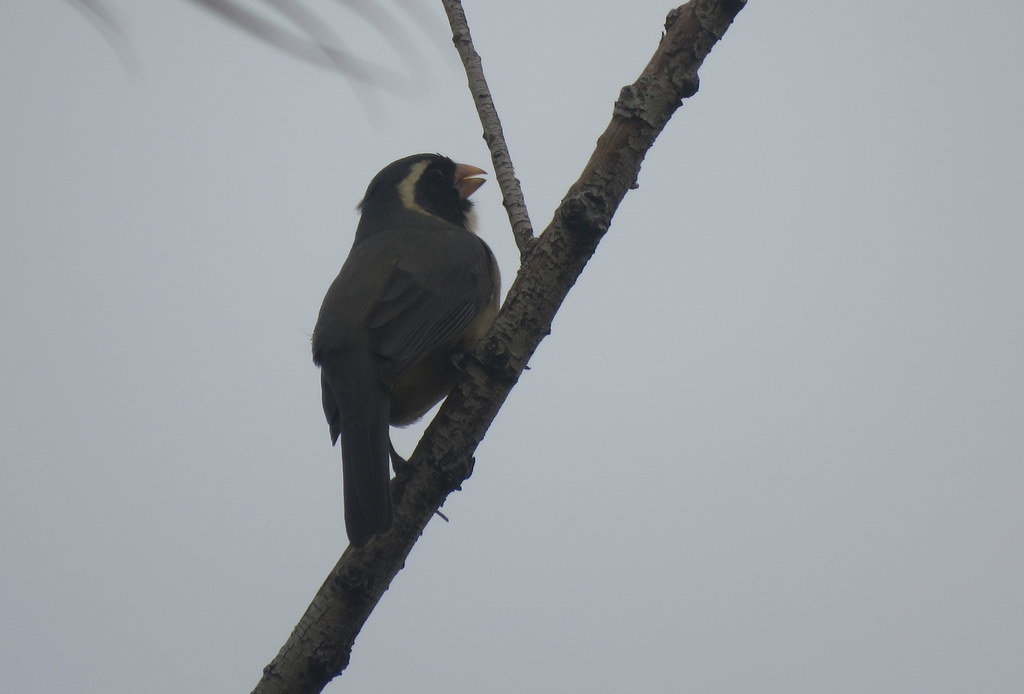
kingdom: Animalia
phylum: Chordata
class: Aves
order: Passeriformes
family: Thraupidae
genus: Saltator
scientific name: Saltator aurantiirostris
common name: Golden-billed saltator
